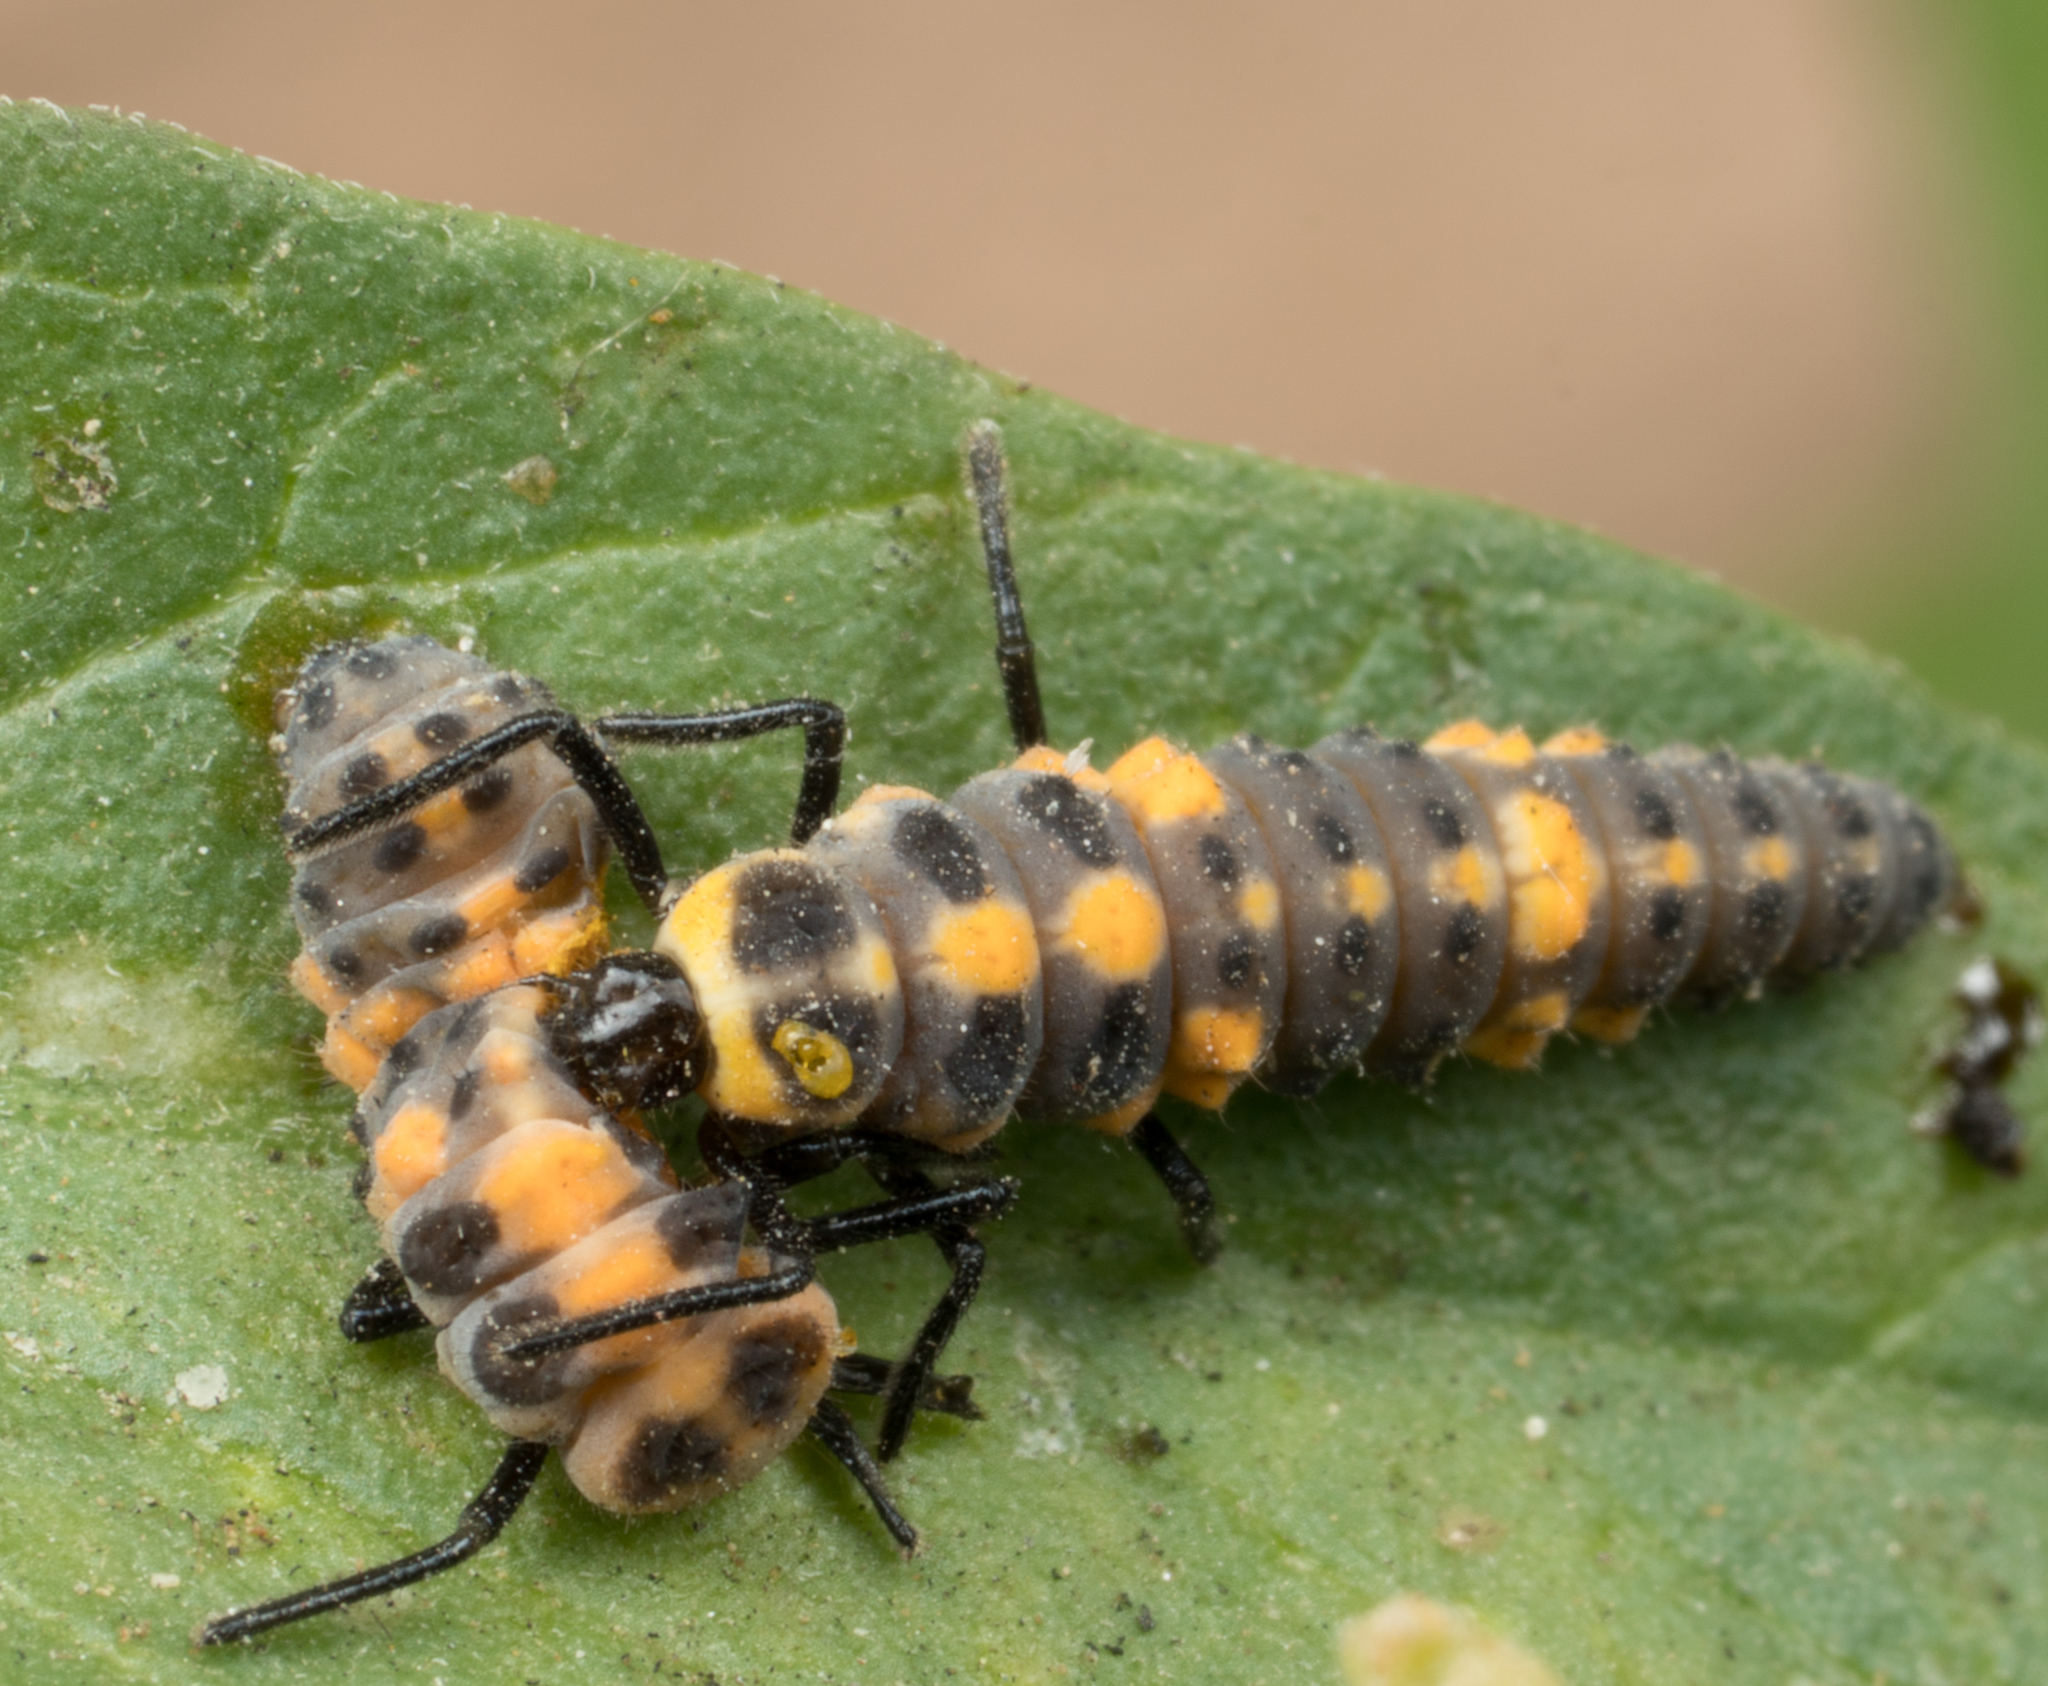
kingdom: Animalia
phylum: Arthropoda
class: Insecta
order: Coleoptera
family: Coccinellidae
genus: Cycloneda
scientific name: Cycloneda sanguinea
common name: Ladybird beetle
